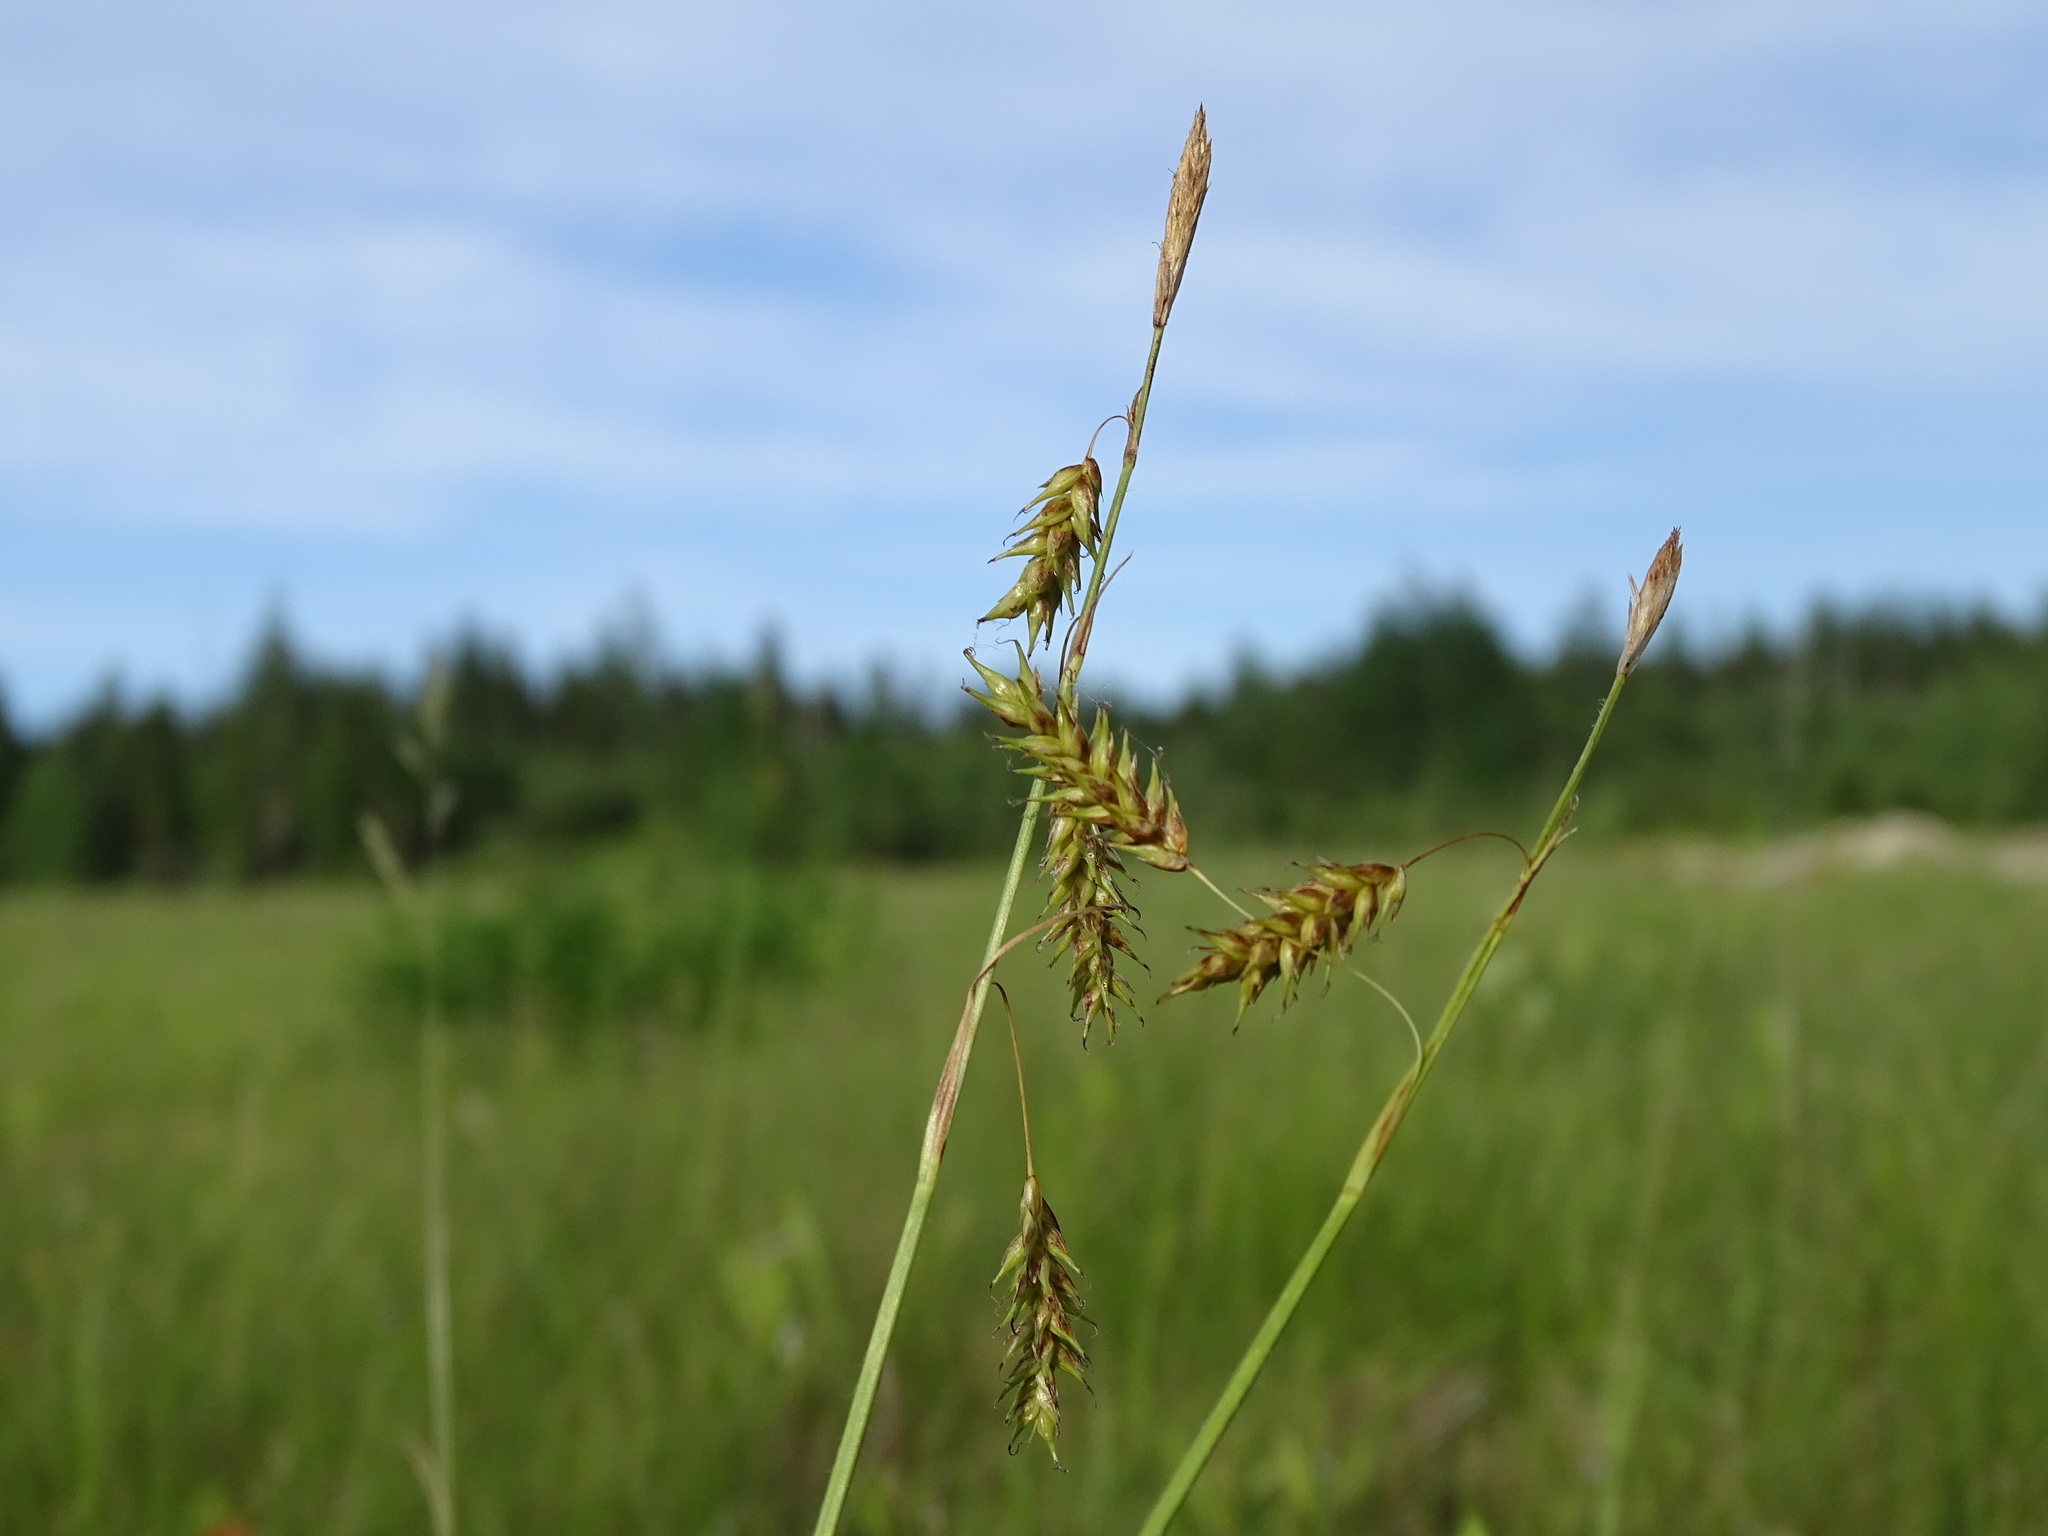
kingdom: Plantae
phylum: Tracheophyta
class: Liliopsida
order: Poales
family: Cyperaceae
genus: Carex
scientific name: Carex castanea
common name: Chestnut sedge
